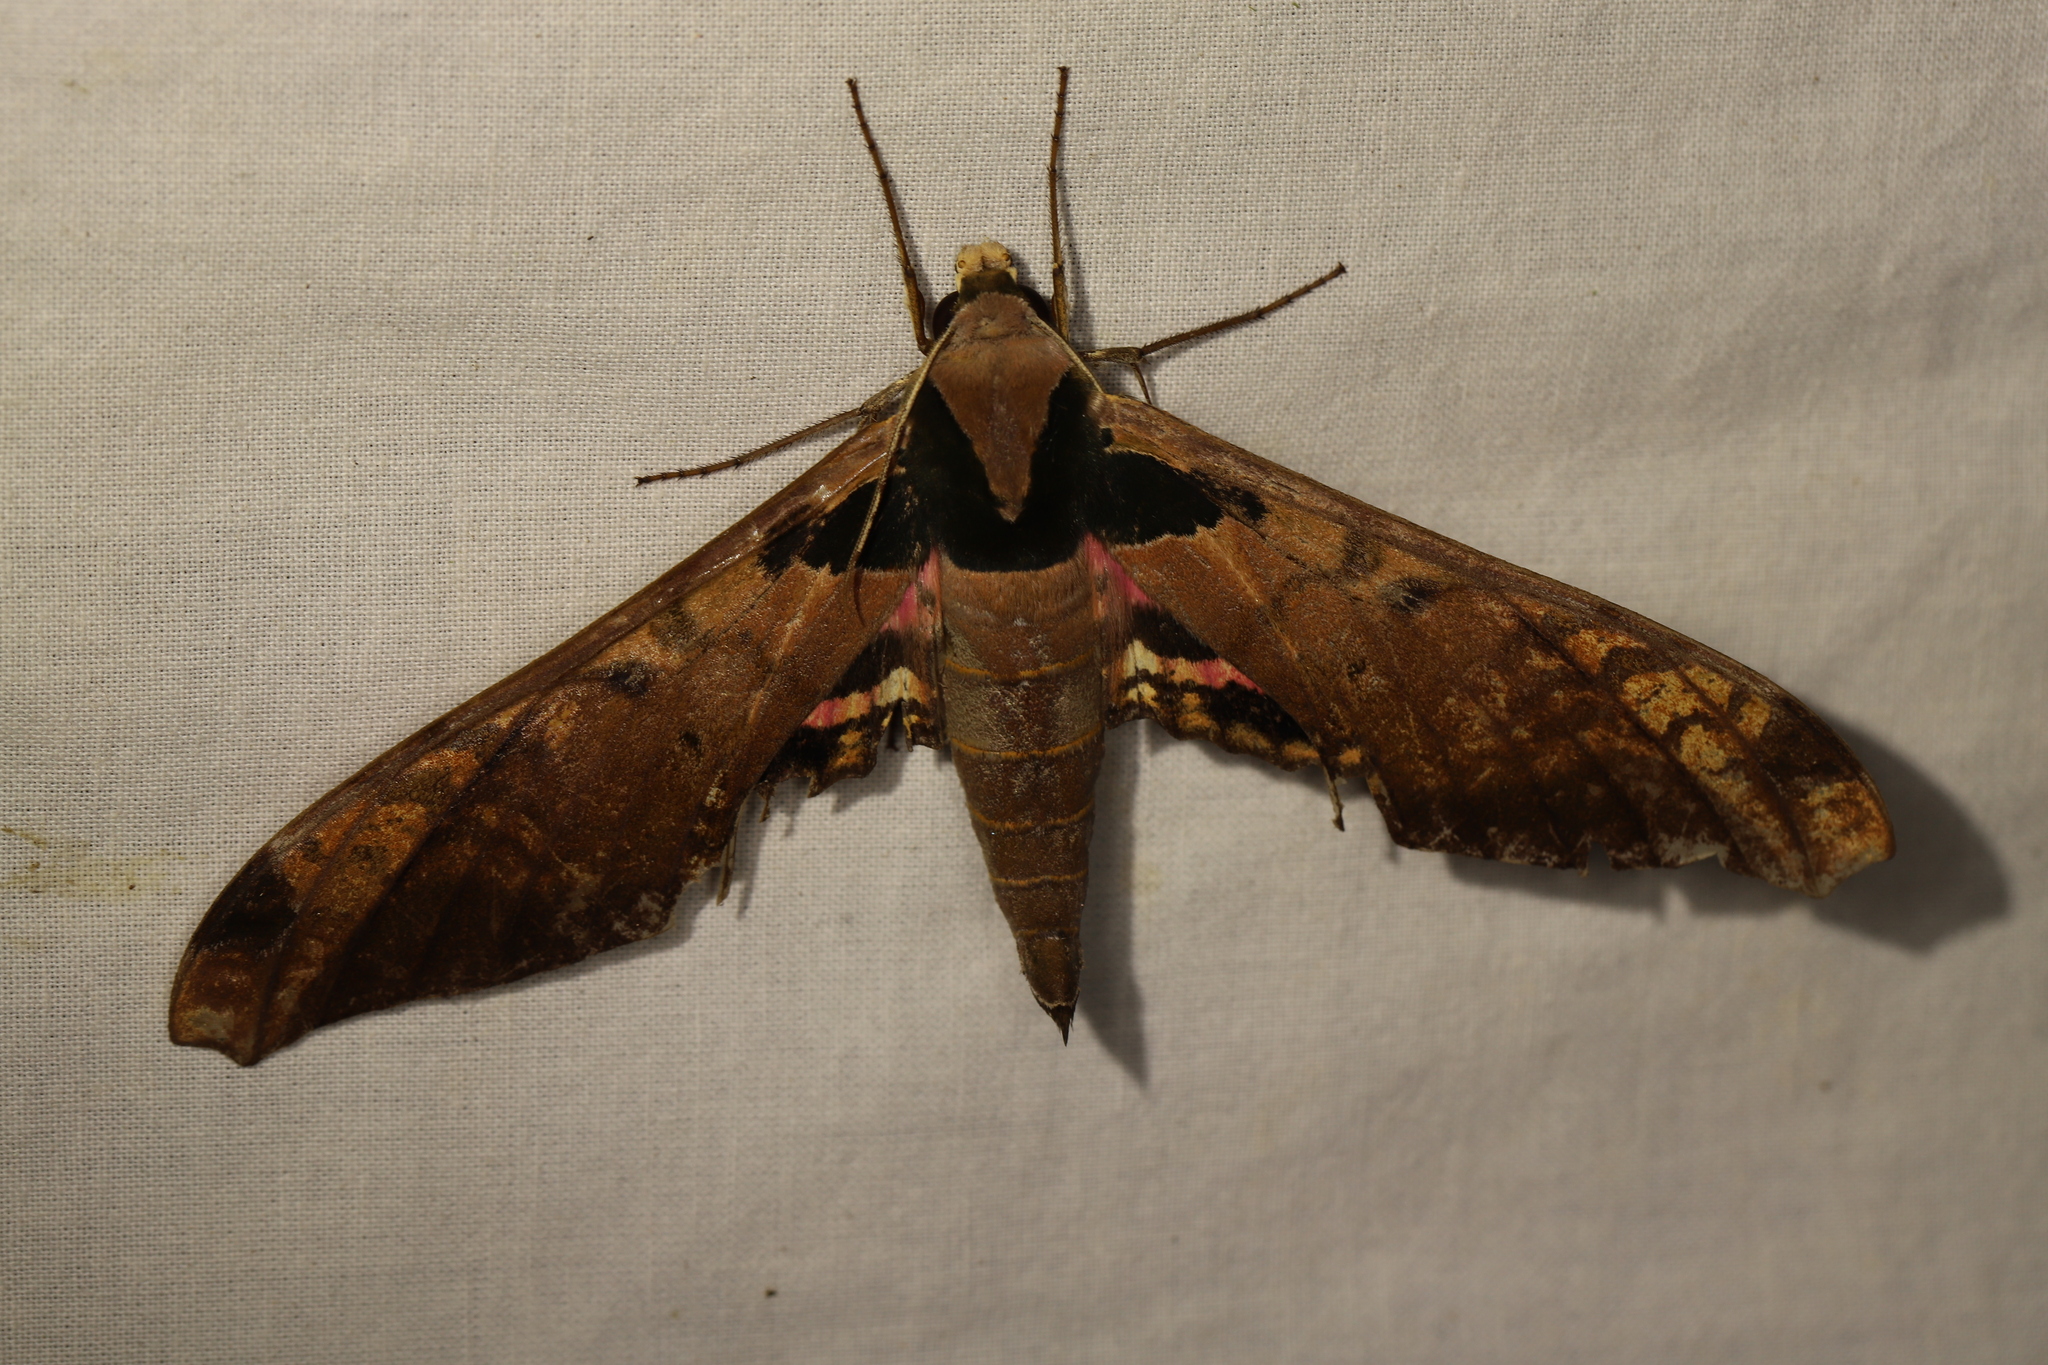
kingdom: Animalia
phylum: Arthropoda
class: Insecta
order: Lepidoptera
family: Sphingidae
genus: Adhemarius
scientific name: Adhemarius ypsilon
